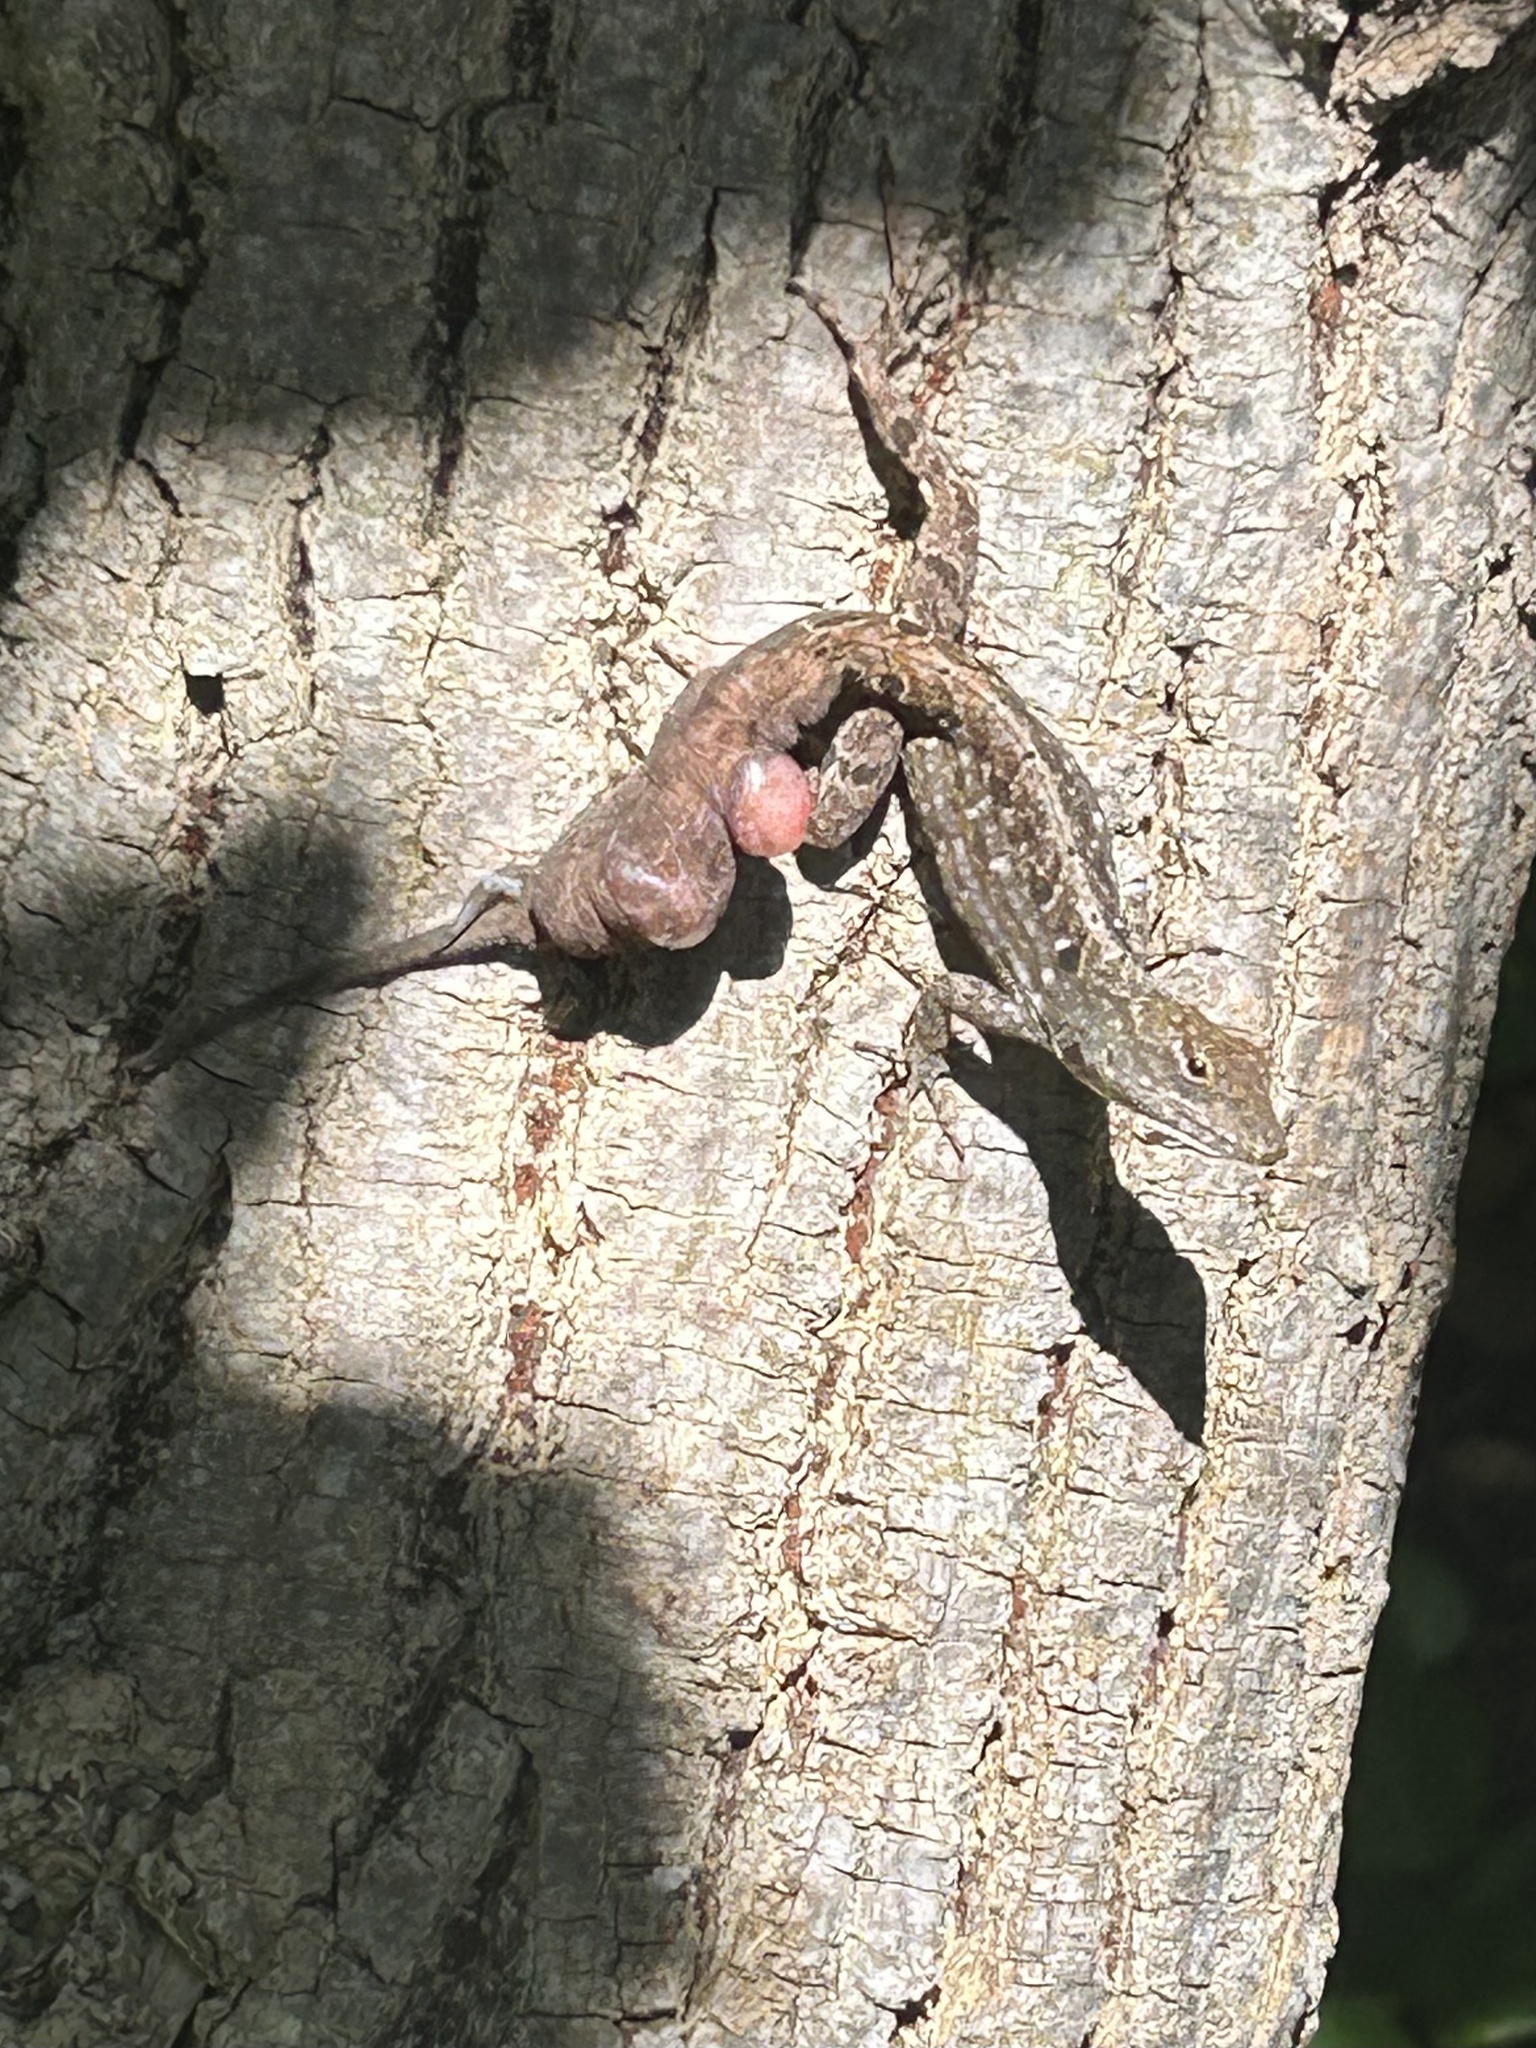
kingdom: Animalia
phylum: Chordata
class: Squamata
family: Dactyloidae
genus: Anolis
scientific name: Anolis sagrei
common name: Brown anole
